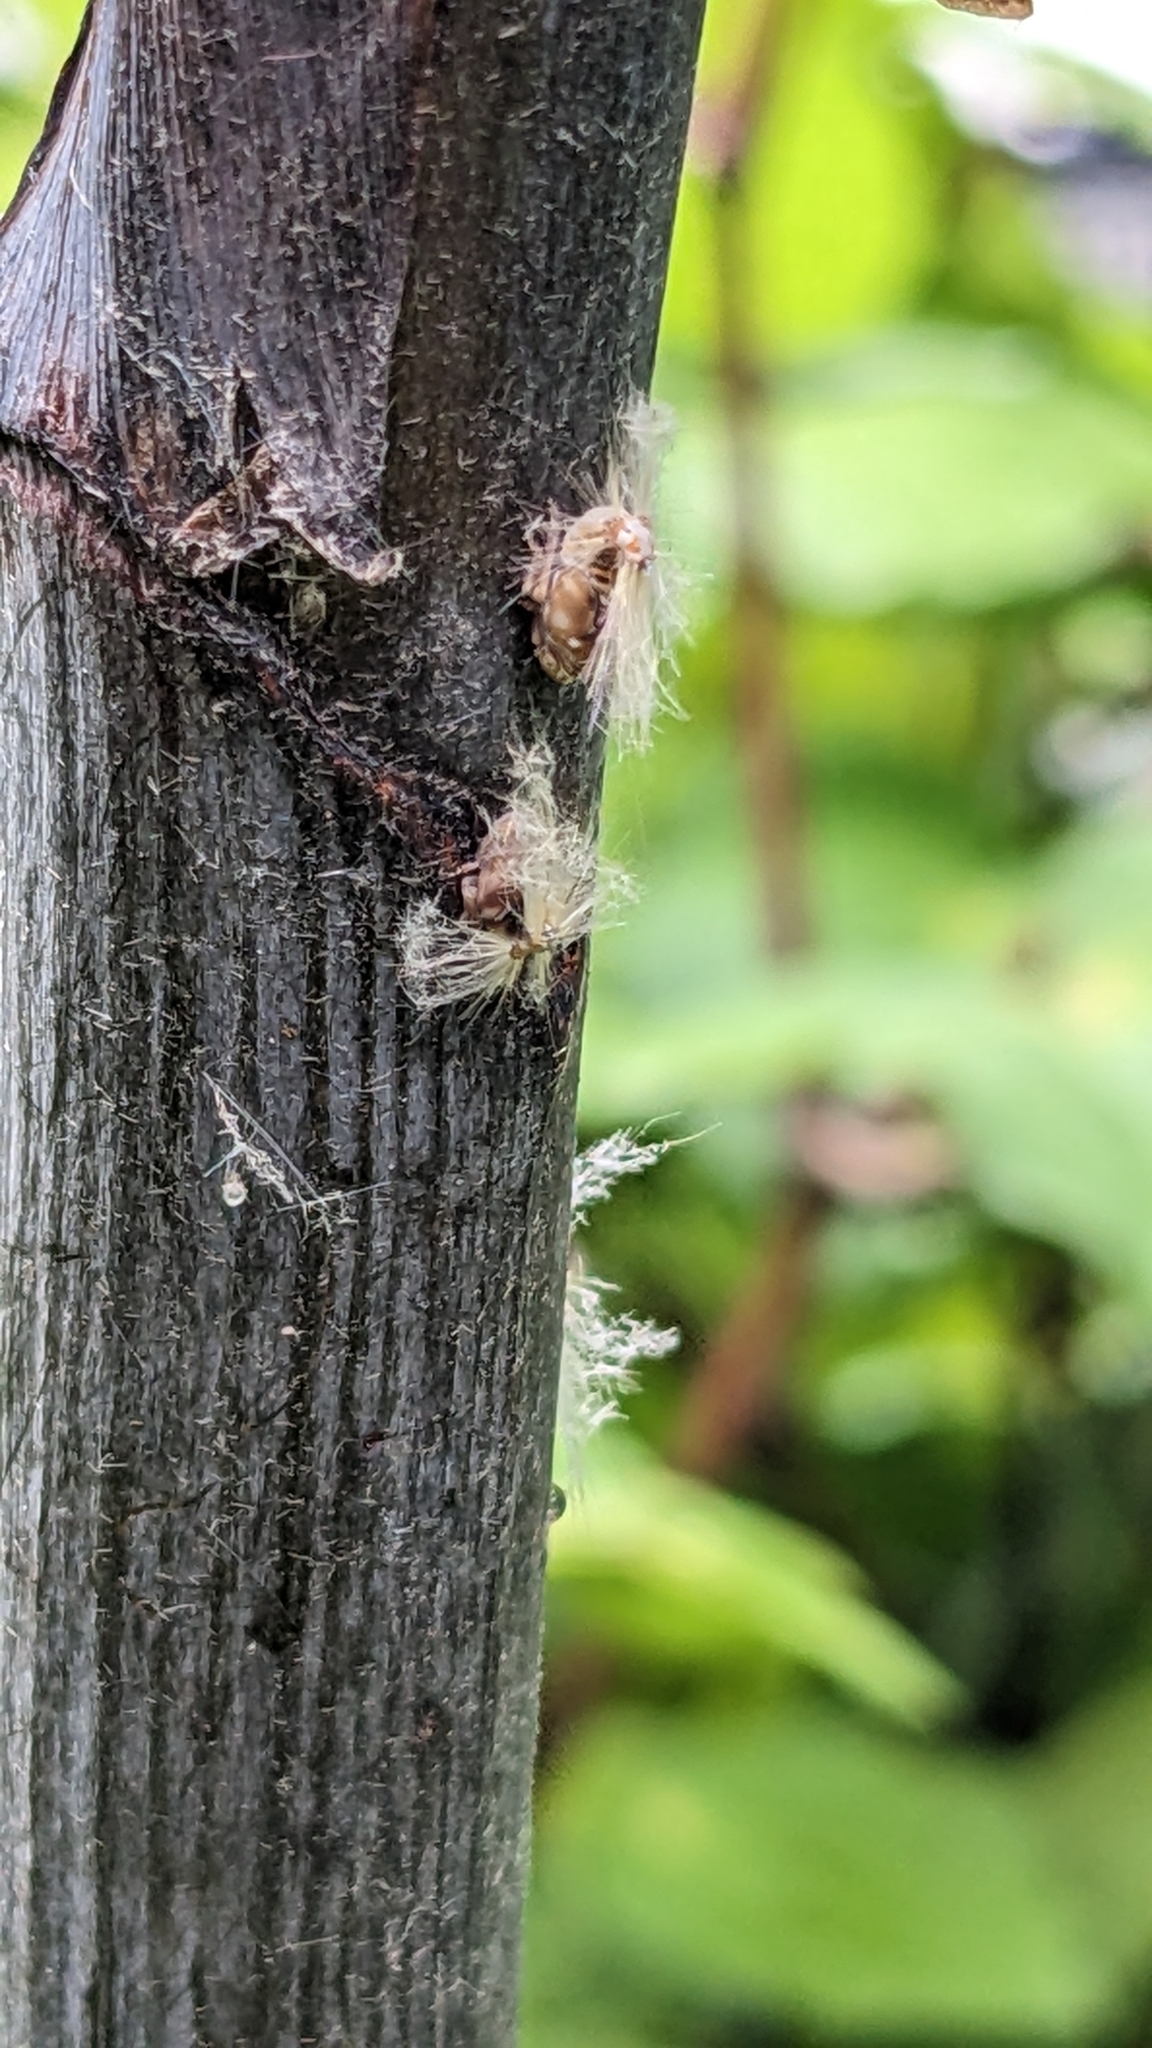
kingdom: Animalia
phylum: Arthropoda
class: Insecta
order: Hemiptera
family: Ricaniidae
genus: Scolypopa
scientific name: Scolypopa australis
